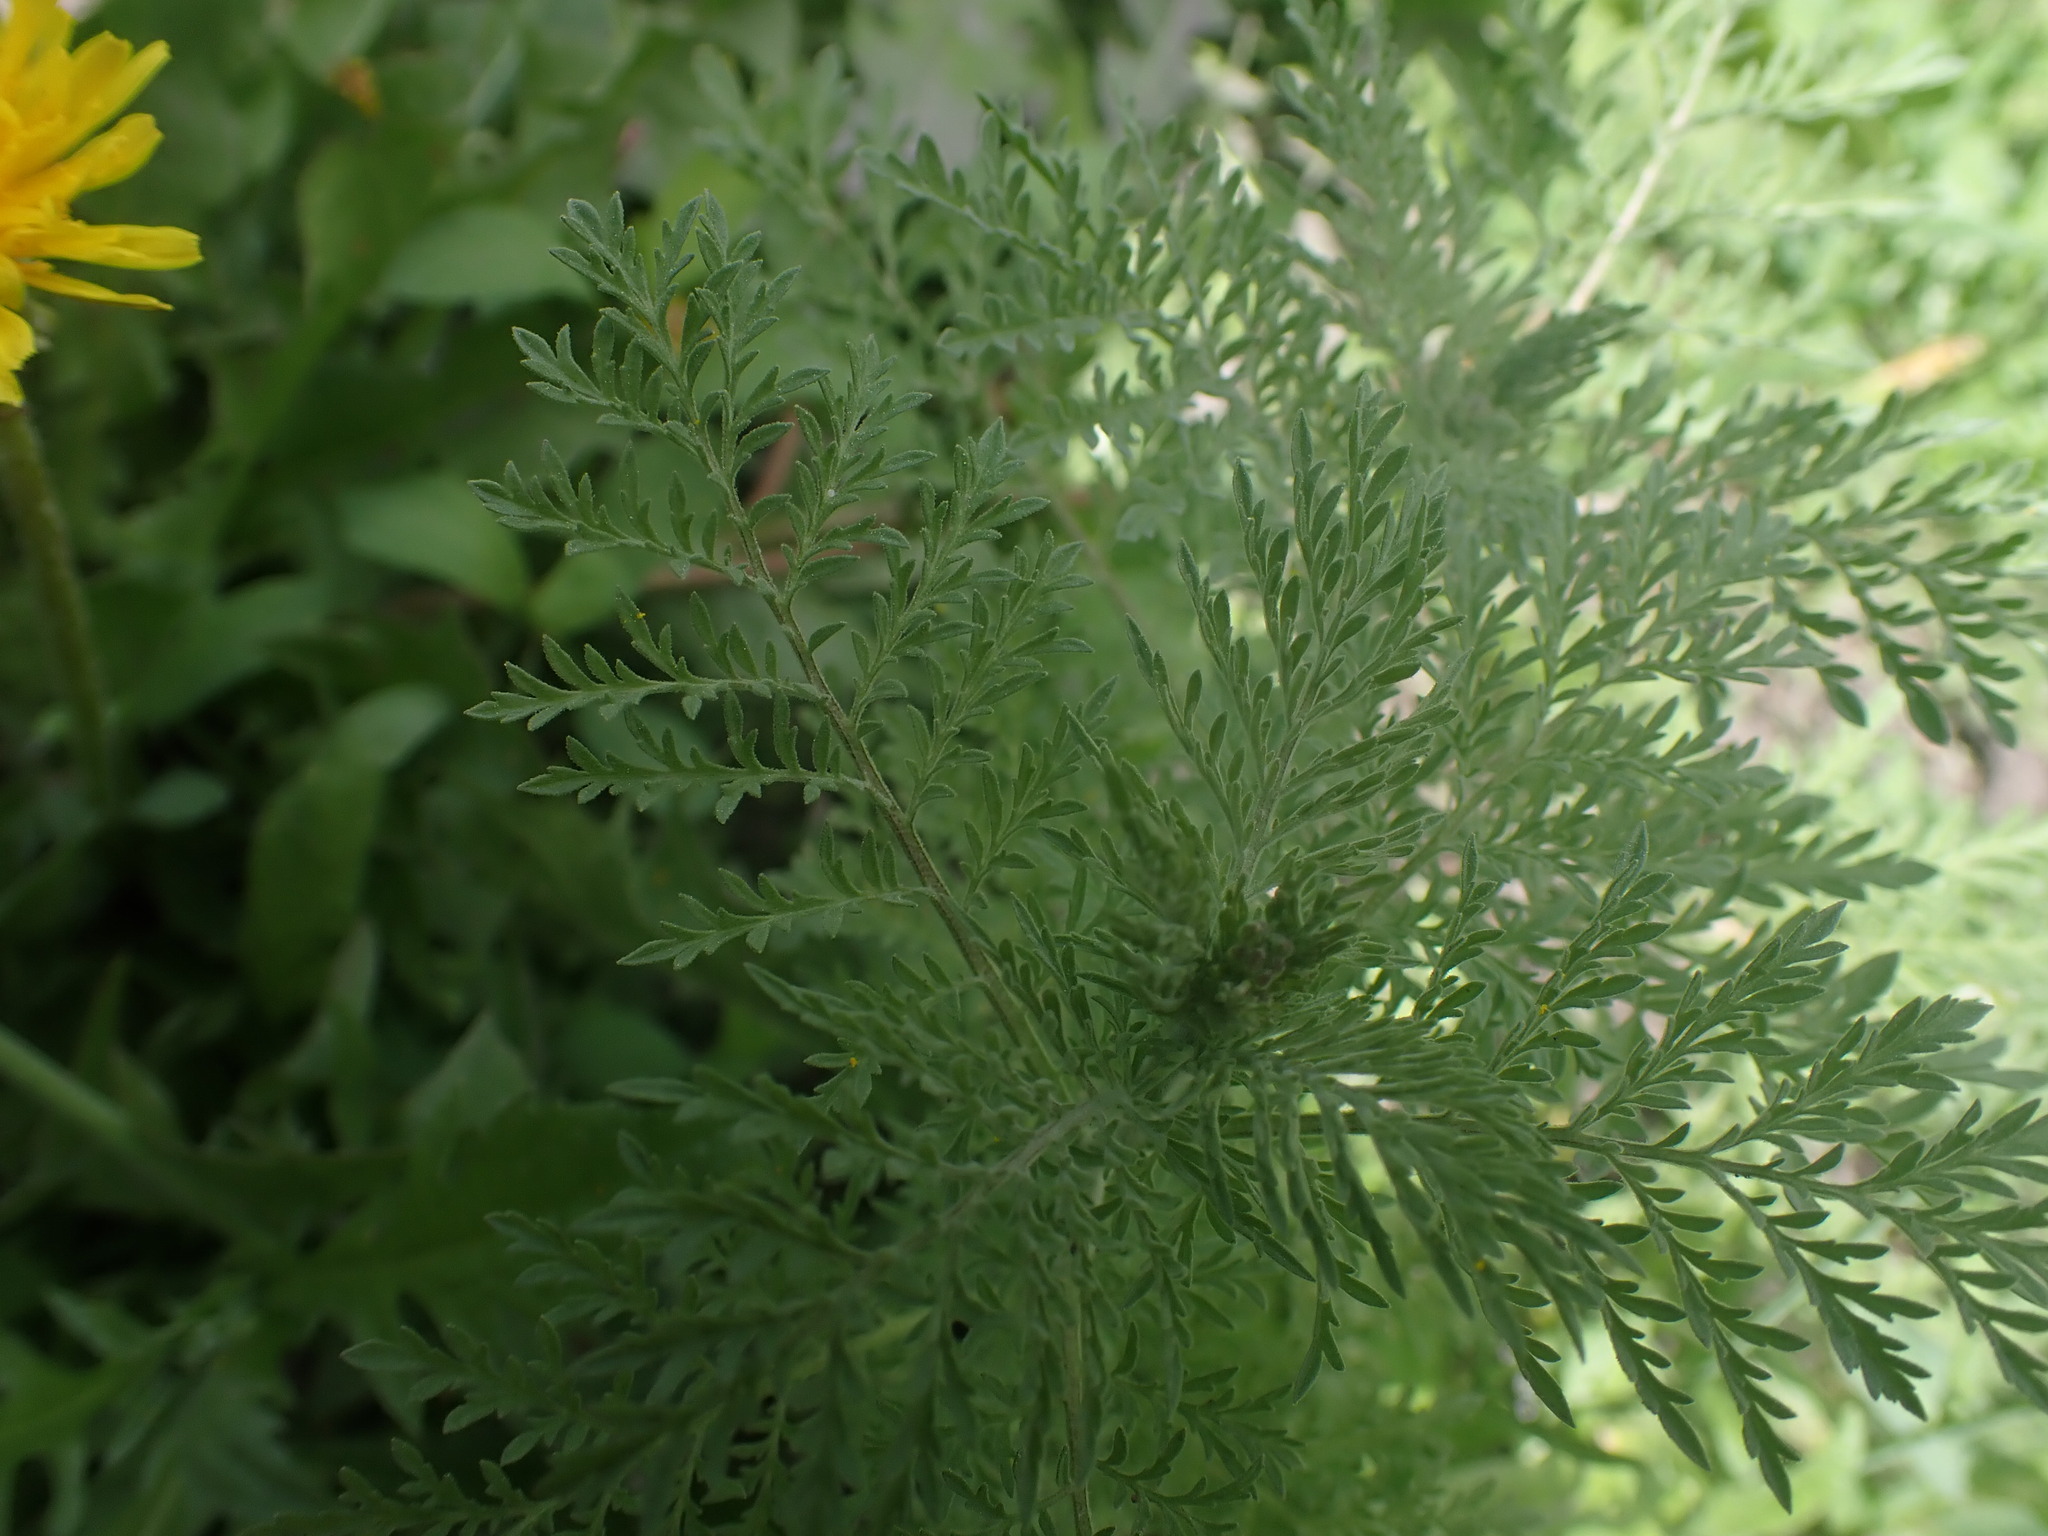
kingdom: Plantae
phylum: Tracheophyta
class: Magnoliopsida
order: Brassicales
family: Brassicaceae
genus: Capsella
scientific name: Capsella bursa-pastoris
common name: Shepherd's purse
